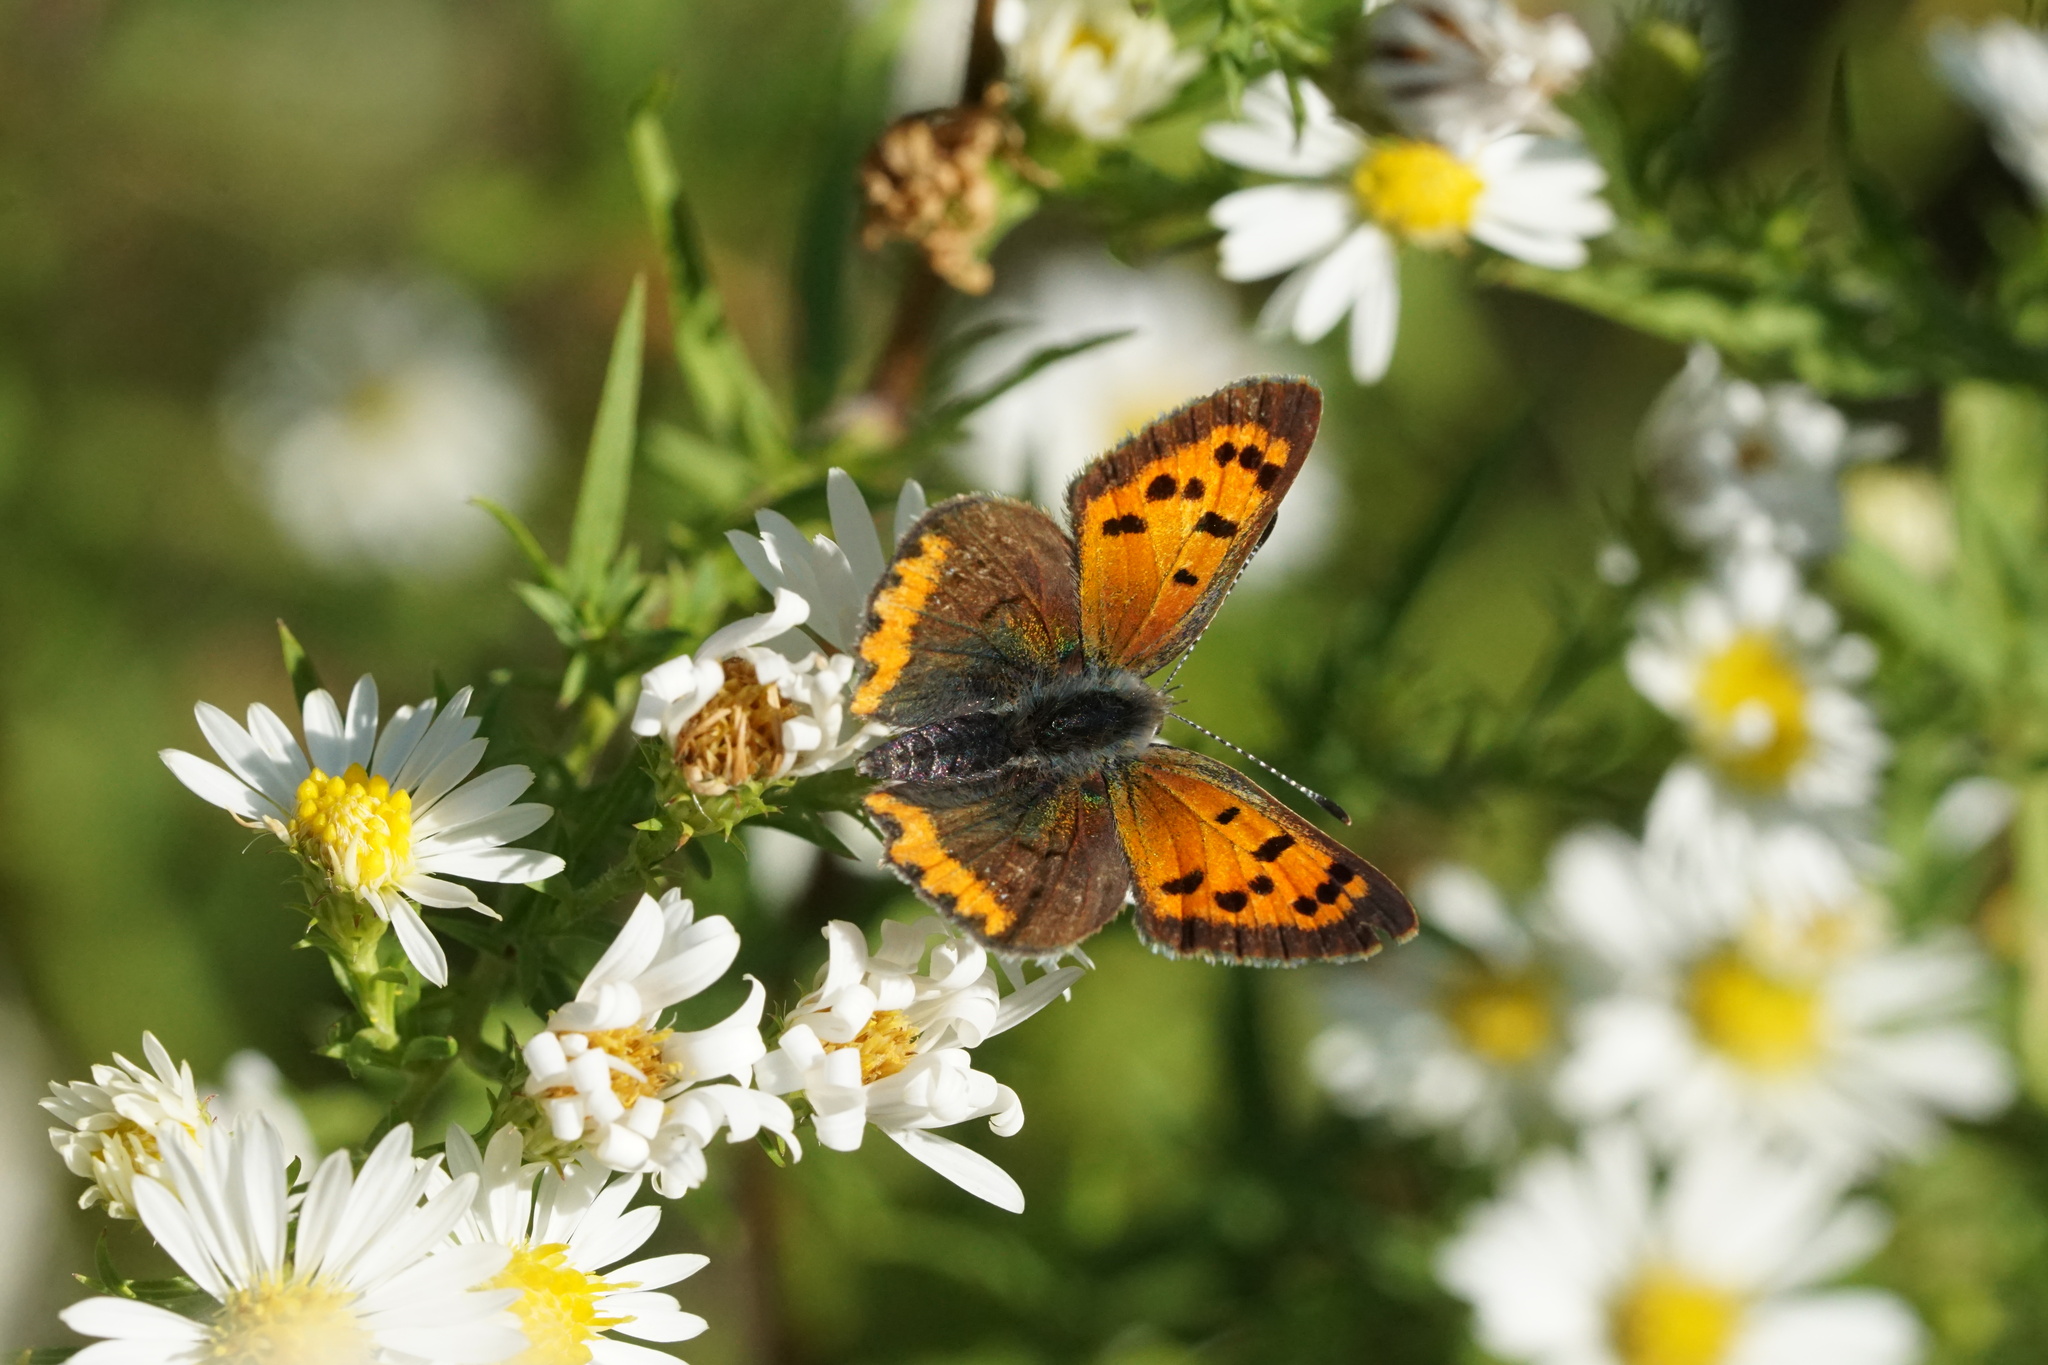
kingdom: Animalia
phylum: Arthropoda
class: Insecta
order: Lepidoptera
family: Lycaenidae
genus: Lycaena
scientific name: Lycaena hypophlaeas
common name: American copper
